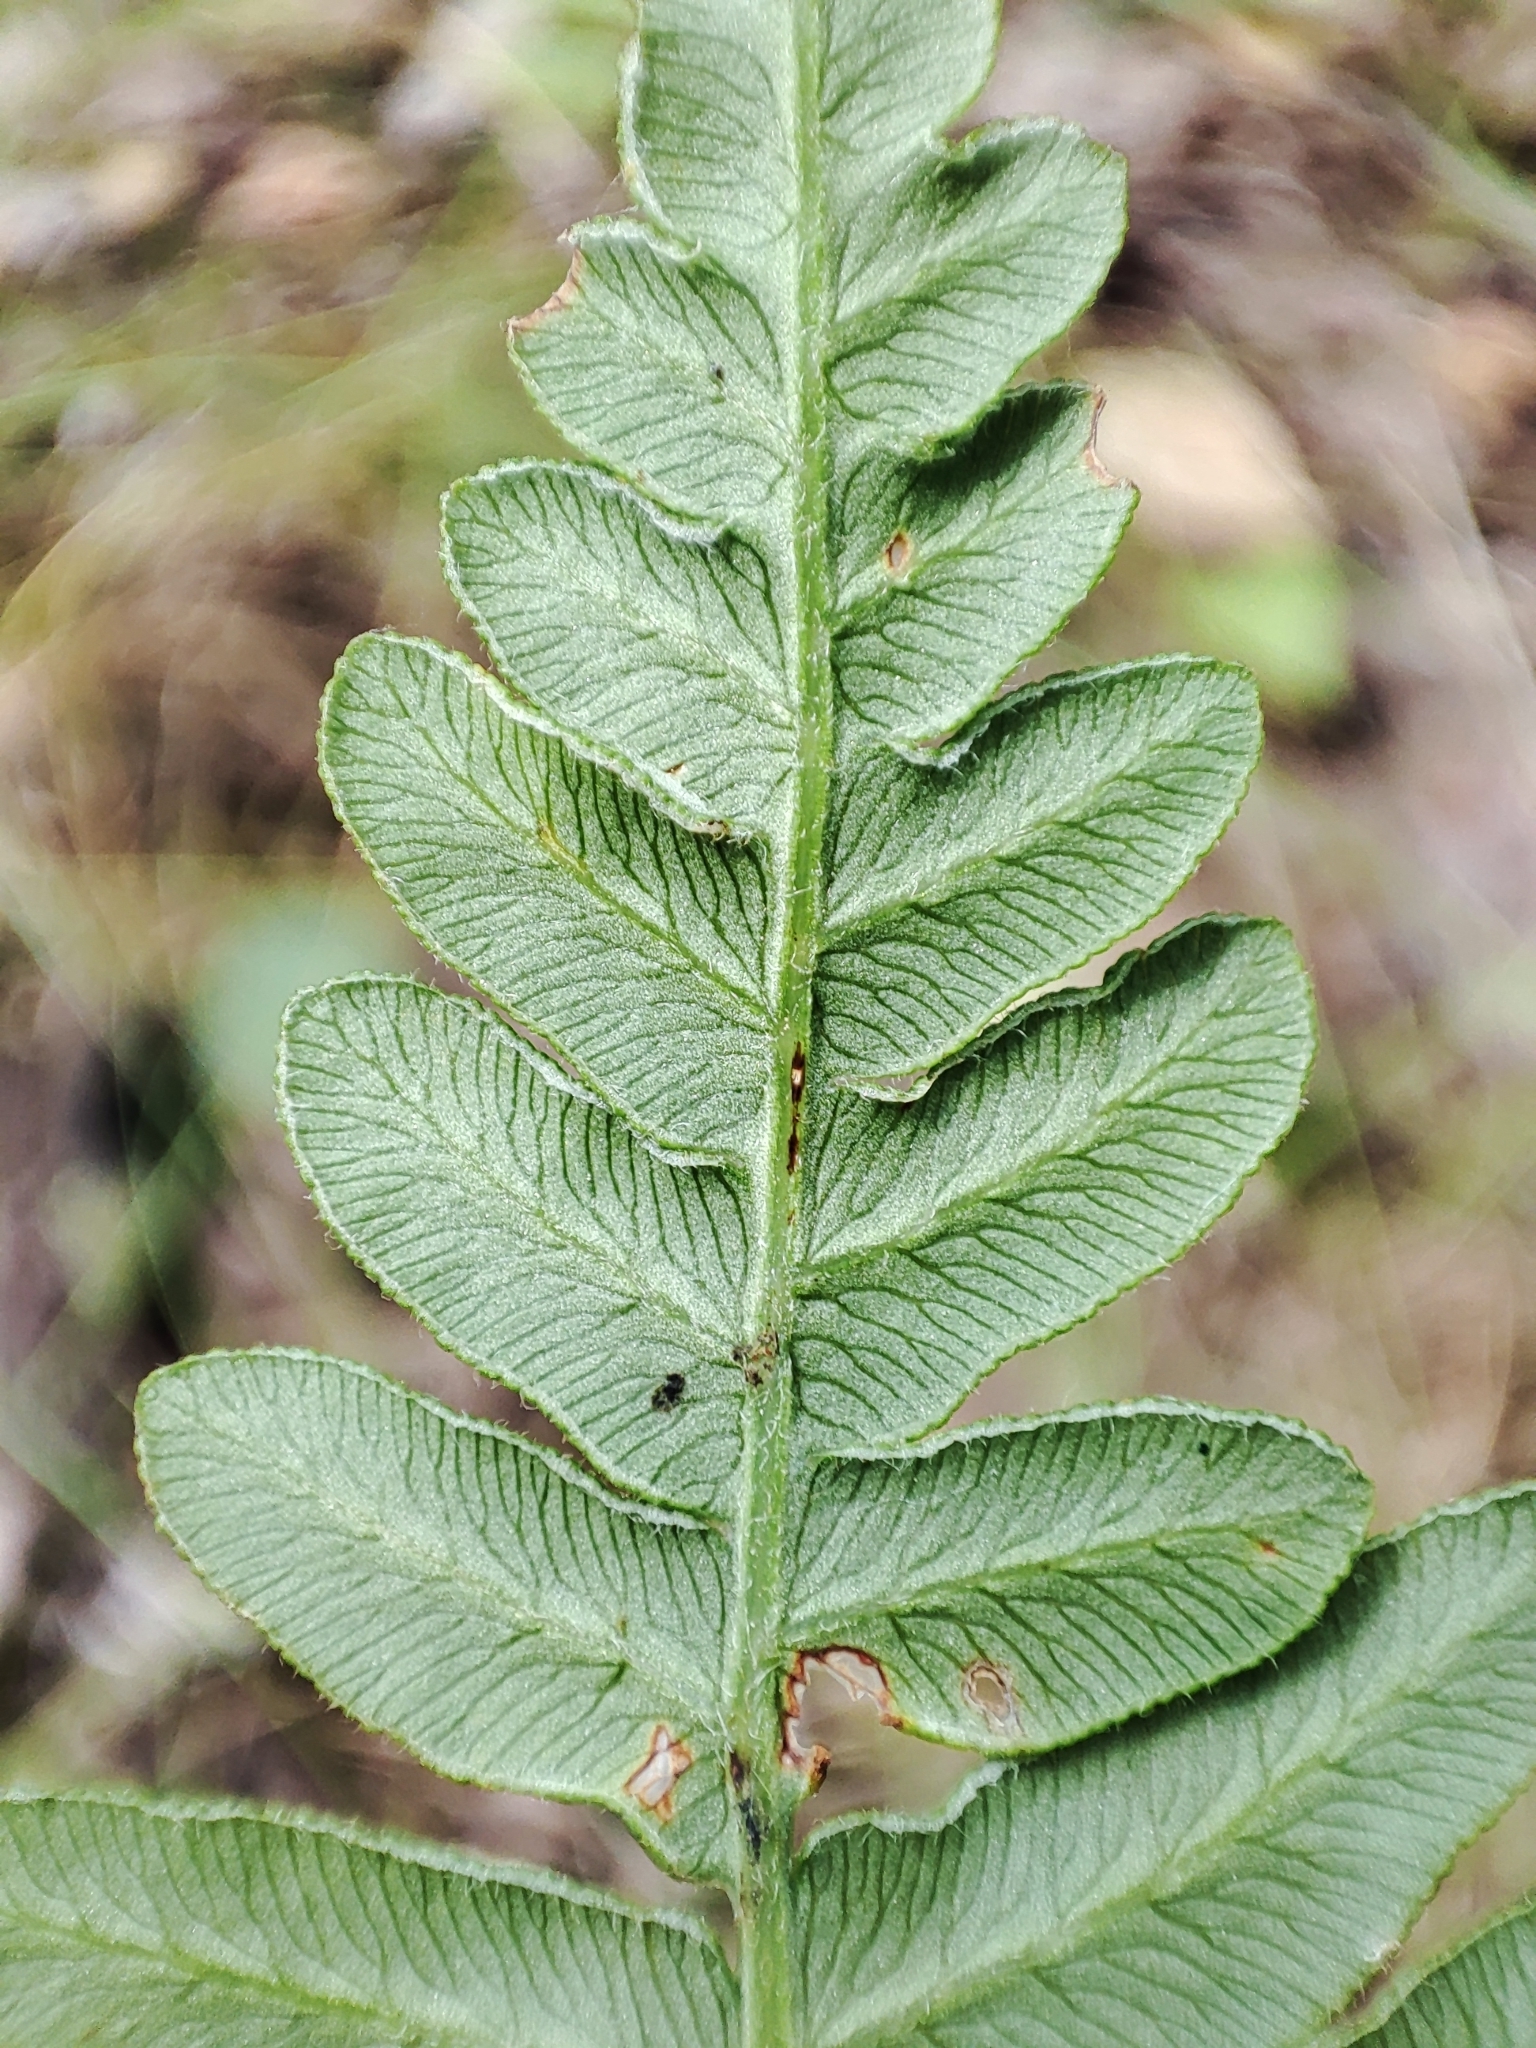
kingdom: Plantae
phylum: Tracheophyta
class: Polypodiopsida
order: Polypodiales
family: Dennstaedtiaceae
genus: Pteridium
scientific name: Pteridium aquilinum
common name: Bracken
